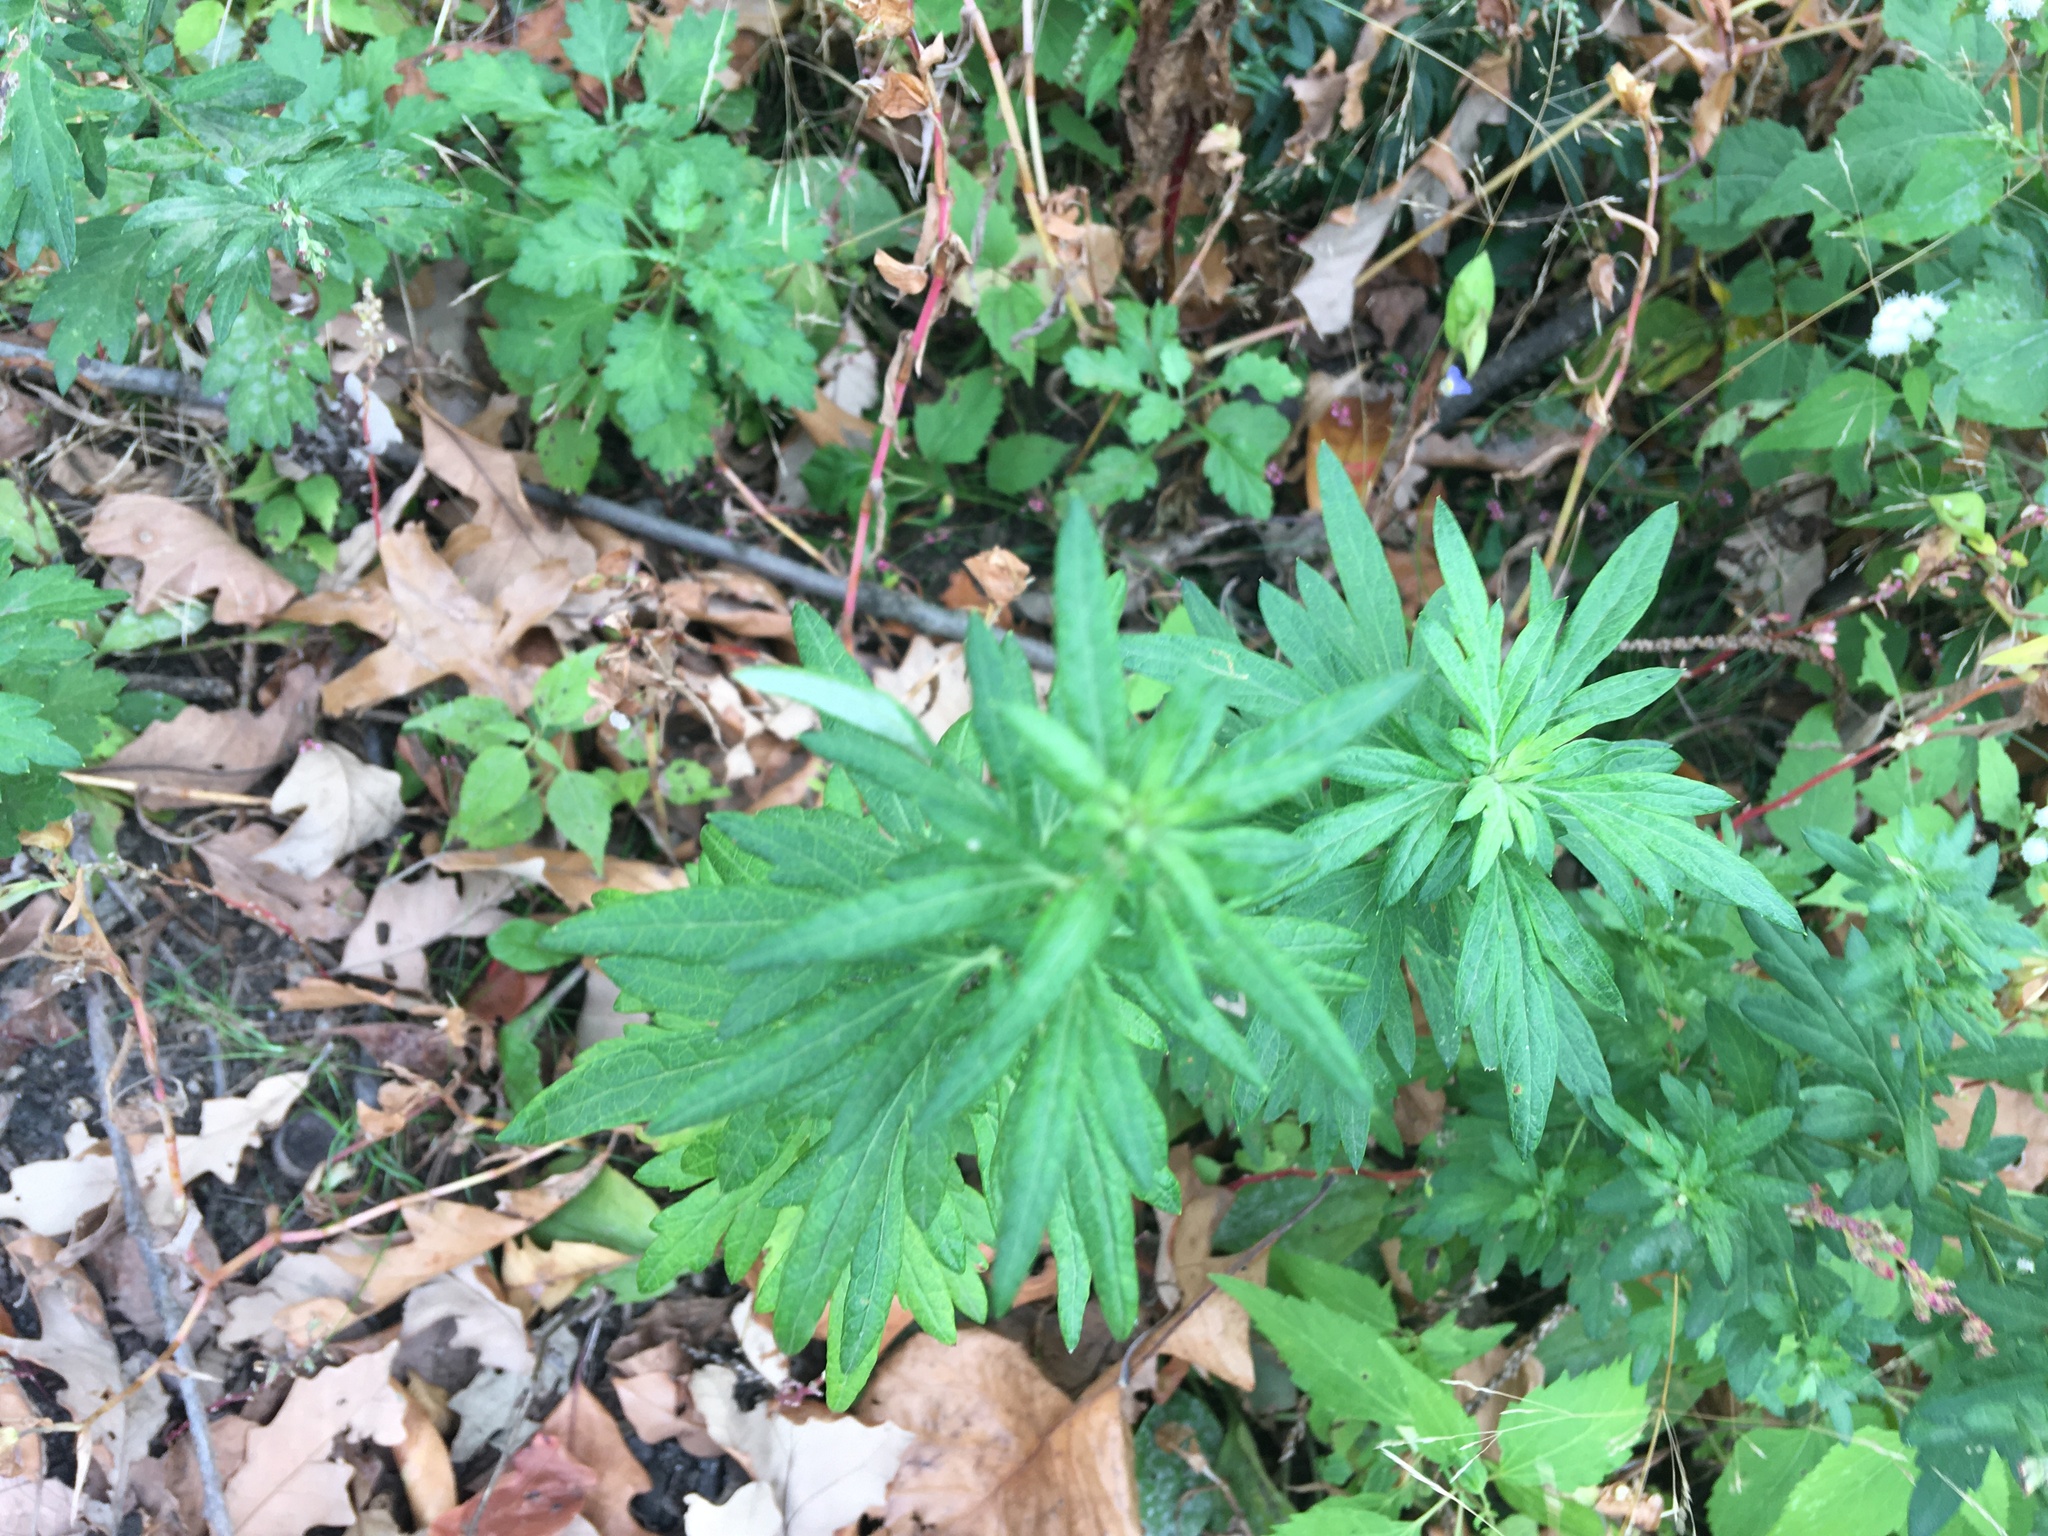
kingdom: Plantae
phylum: Tracheophyta
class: Magnoliopsida
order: Asterales
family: Asteraceae
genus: Artemisia
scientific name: Artemisia vulgaris
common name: Mugwort
